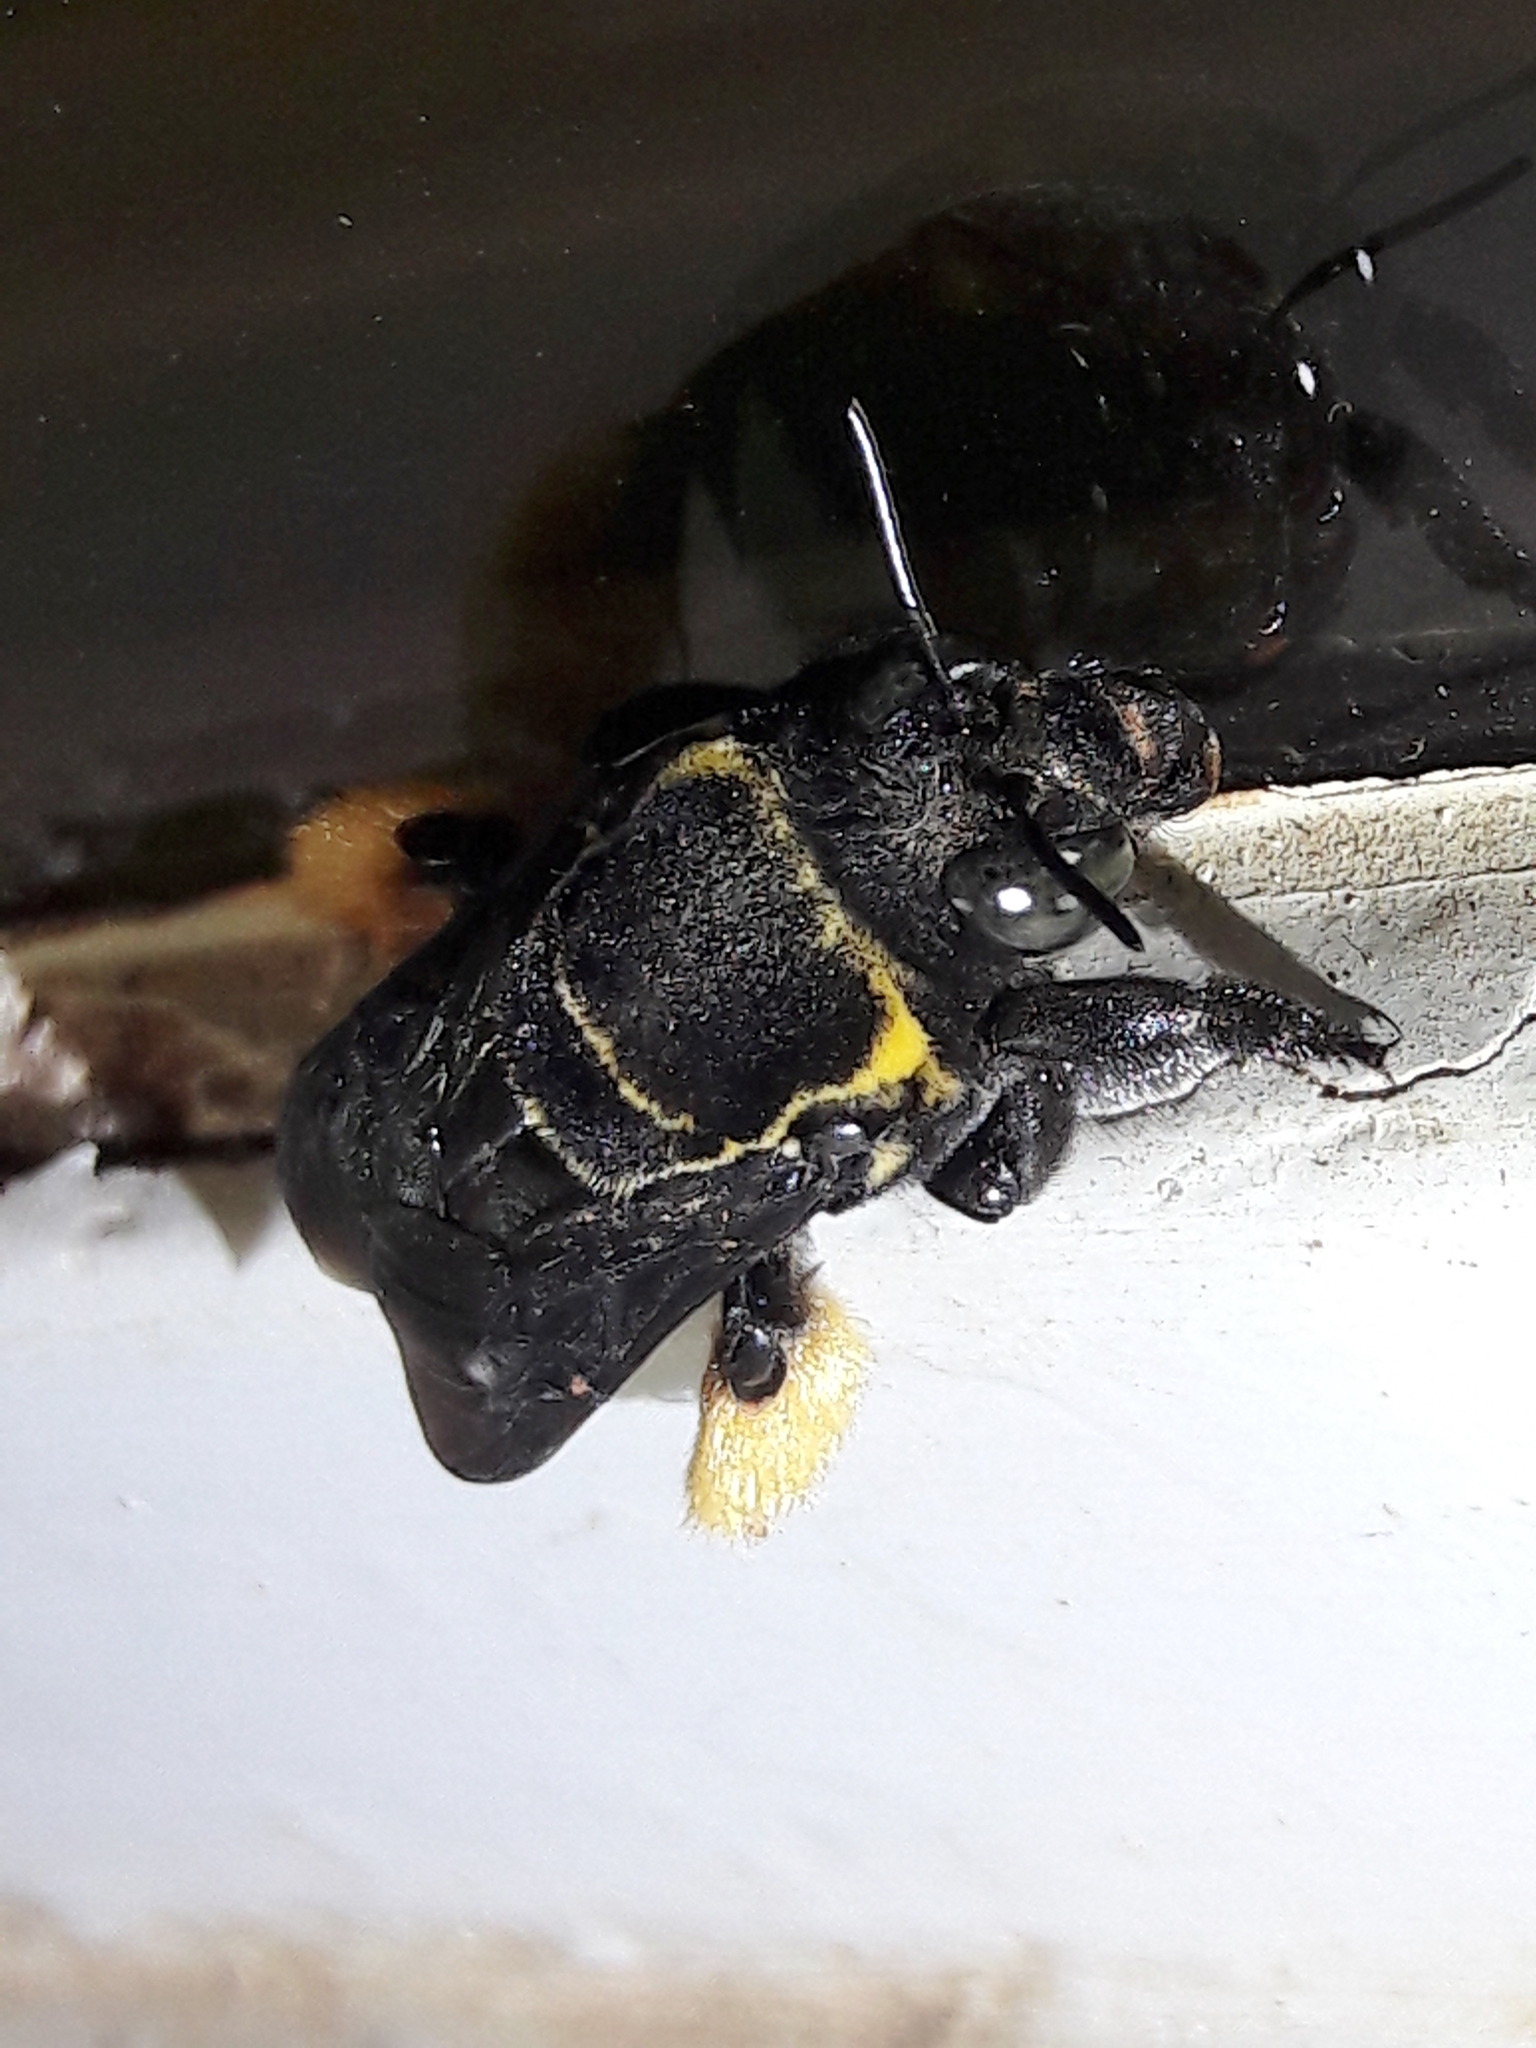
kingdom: Animalia
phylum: Arthropoda
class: Insecta
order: Hymenoptera
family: Apidae
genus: Centris
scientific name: Centris mocsaryi
